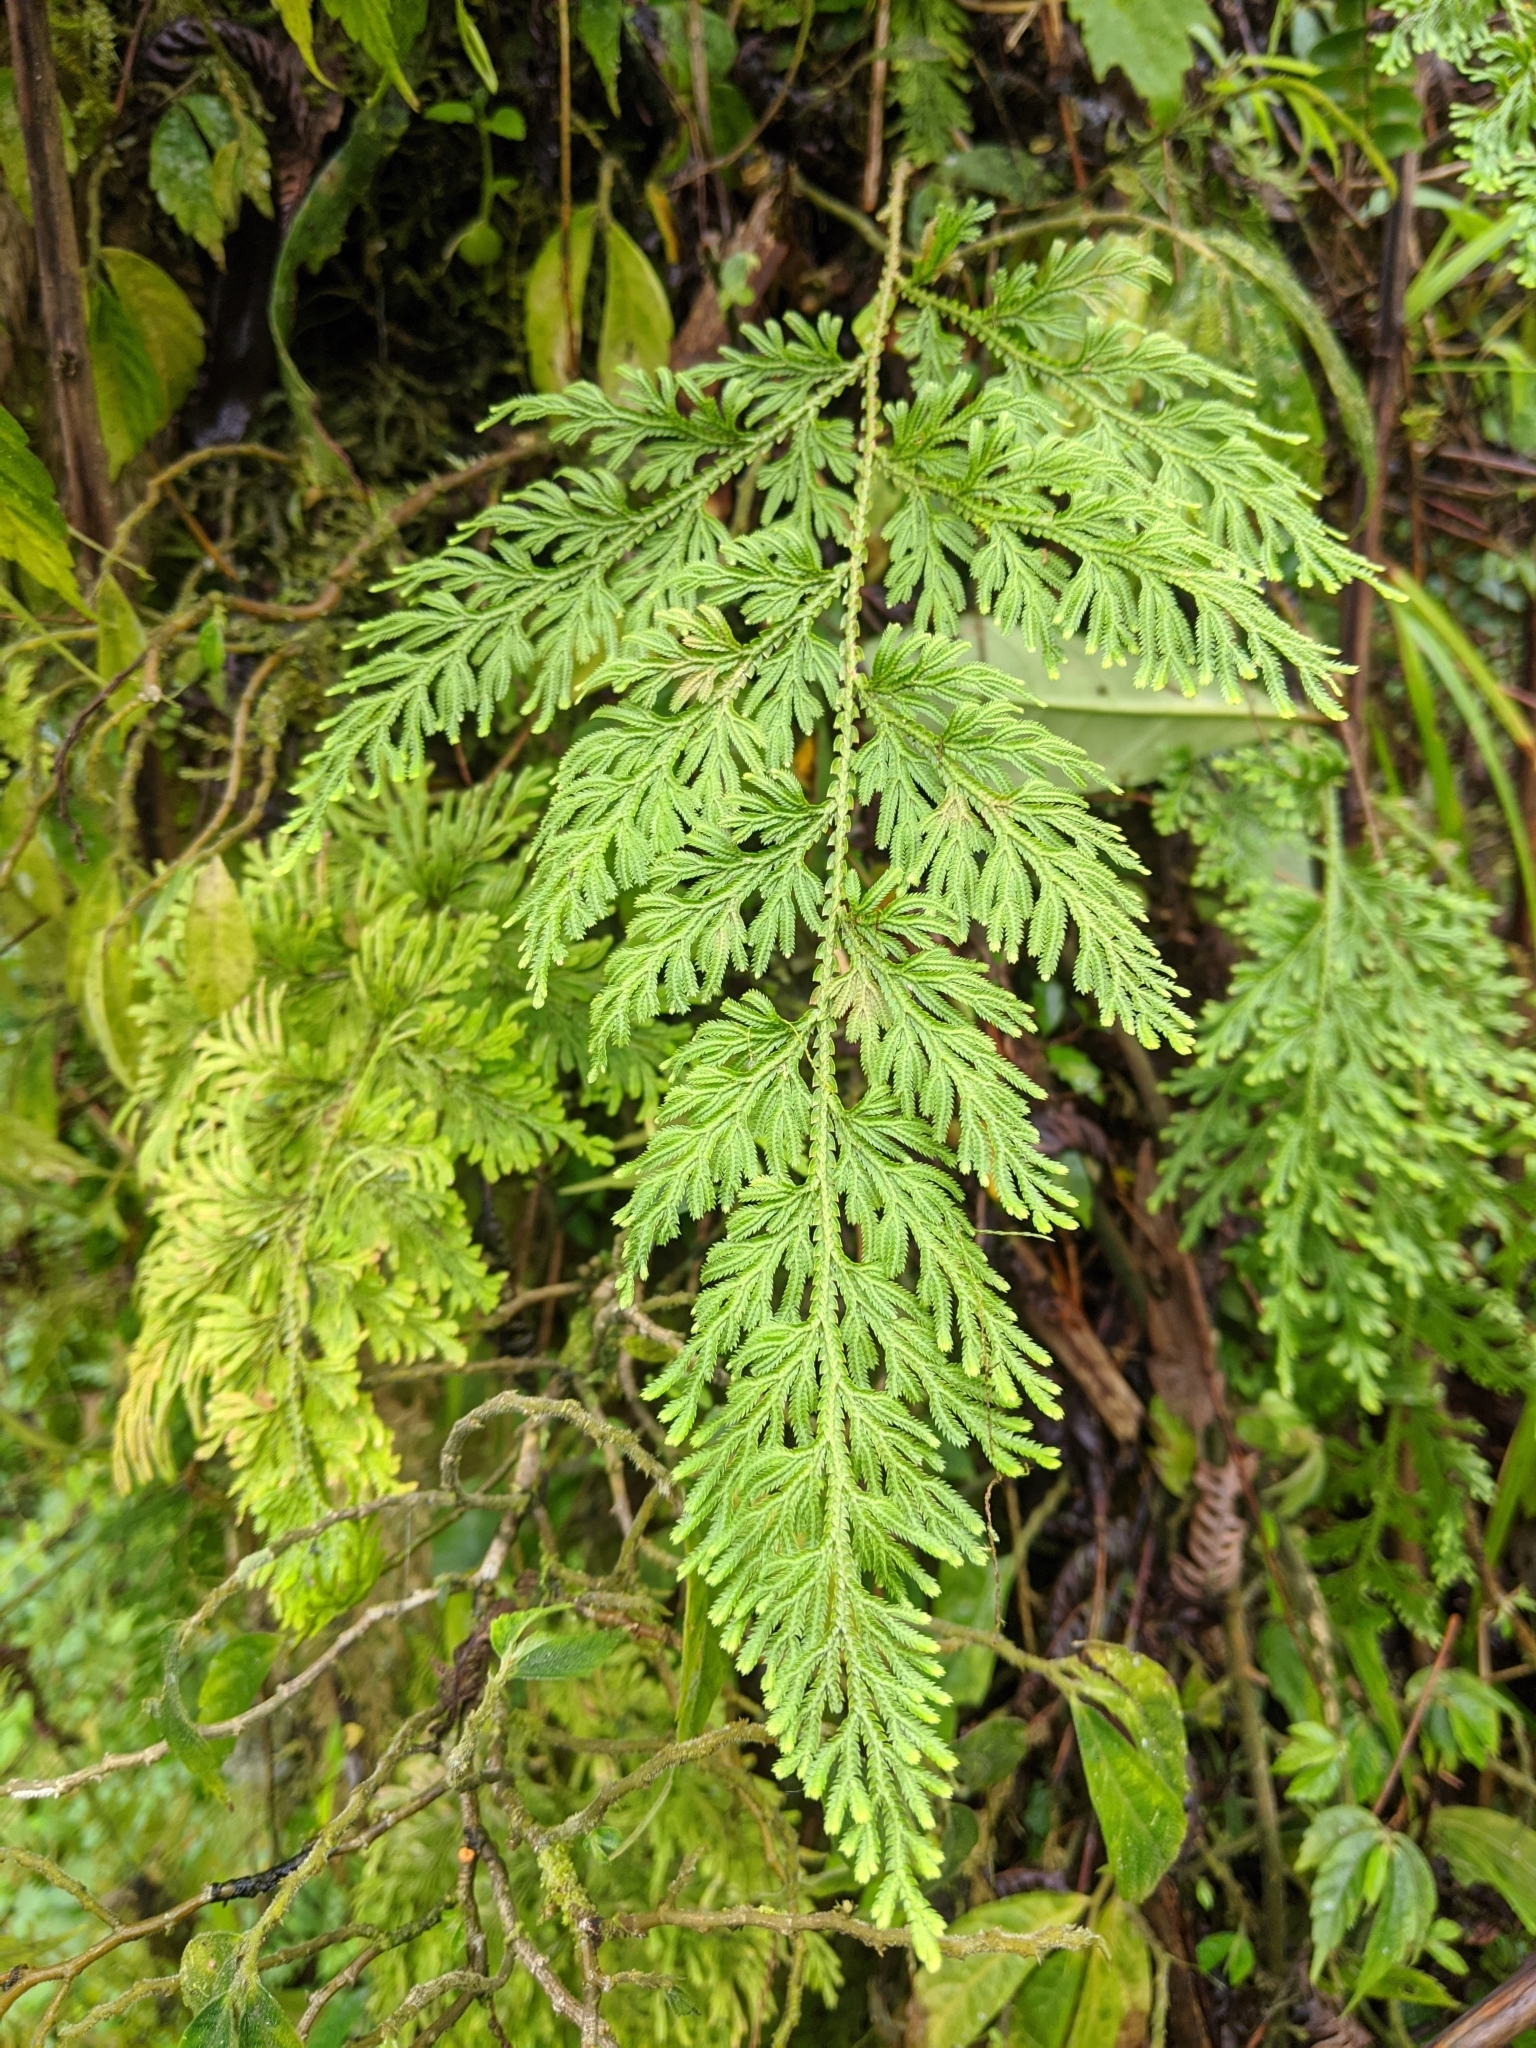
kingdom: Plantae
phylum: Tracheophyta
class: Lycopodiopsida
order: Selaginellales
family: Selaginellaceae
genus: Selaginella
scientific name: Selaginella involvens
